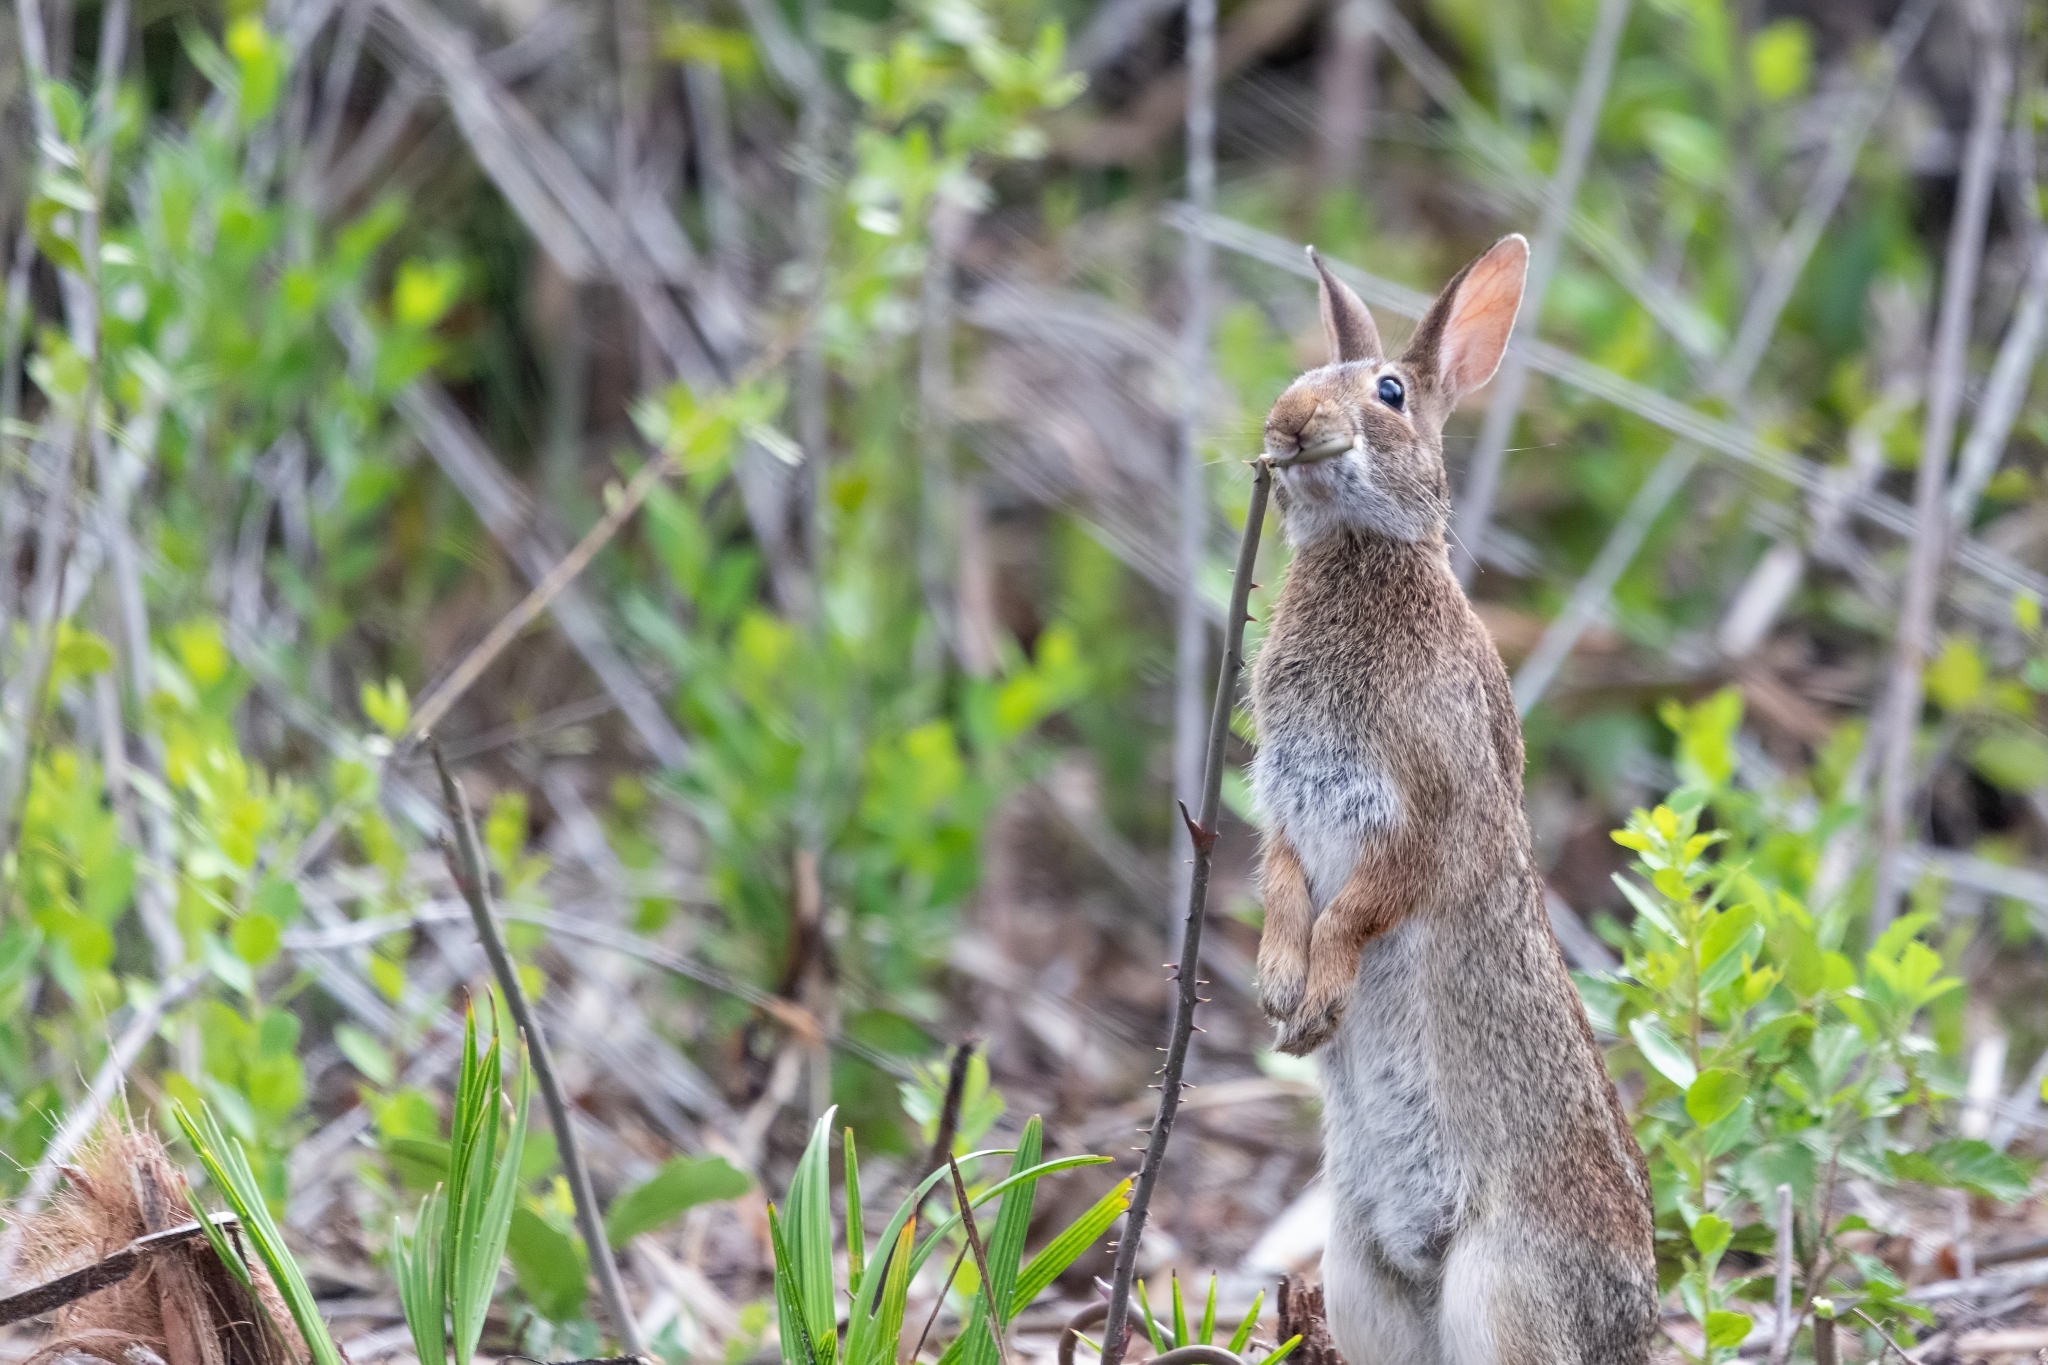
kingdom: Animalia
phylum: Chordata
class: Mammalia
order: Lagomorpha
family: Leporidae
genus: Sylvilagus
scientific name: Sylvilagus floridanus
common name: Eastern cottontail
